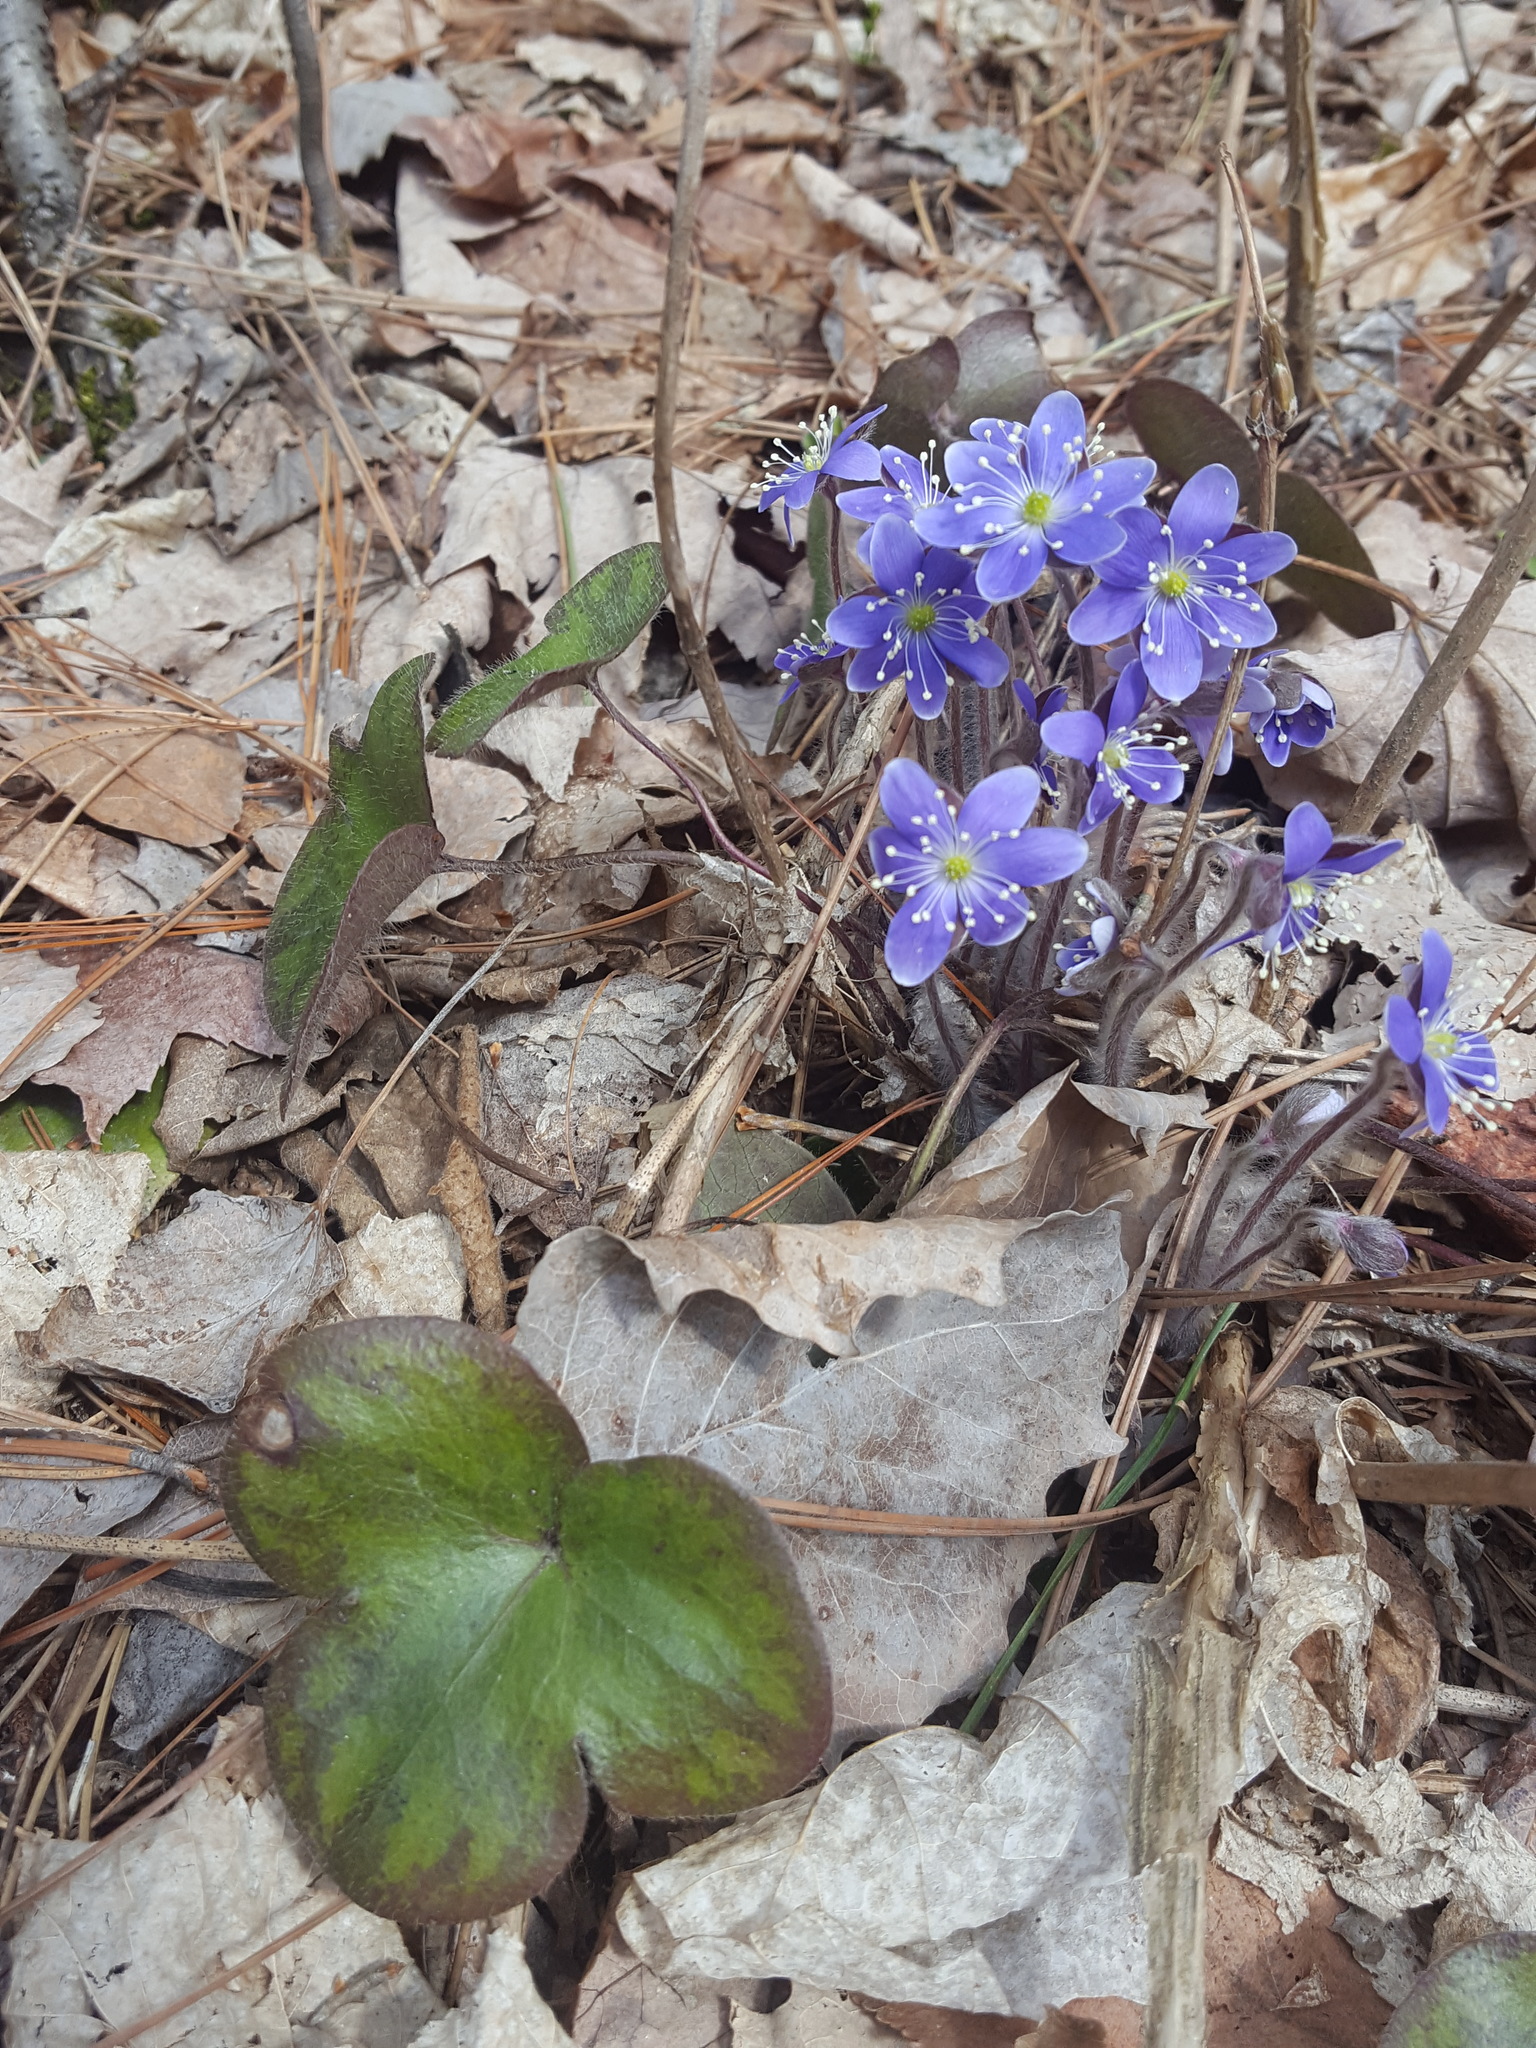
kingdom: Plantae
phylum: Tracheophyta
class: Magnoliopsida
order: Ranunculales
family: Ranunculaceae
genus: Hepatica
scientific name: Hepatica americana
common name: American hepatica
